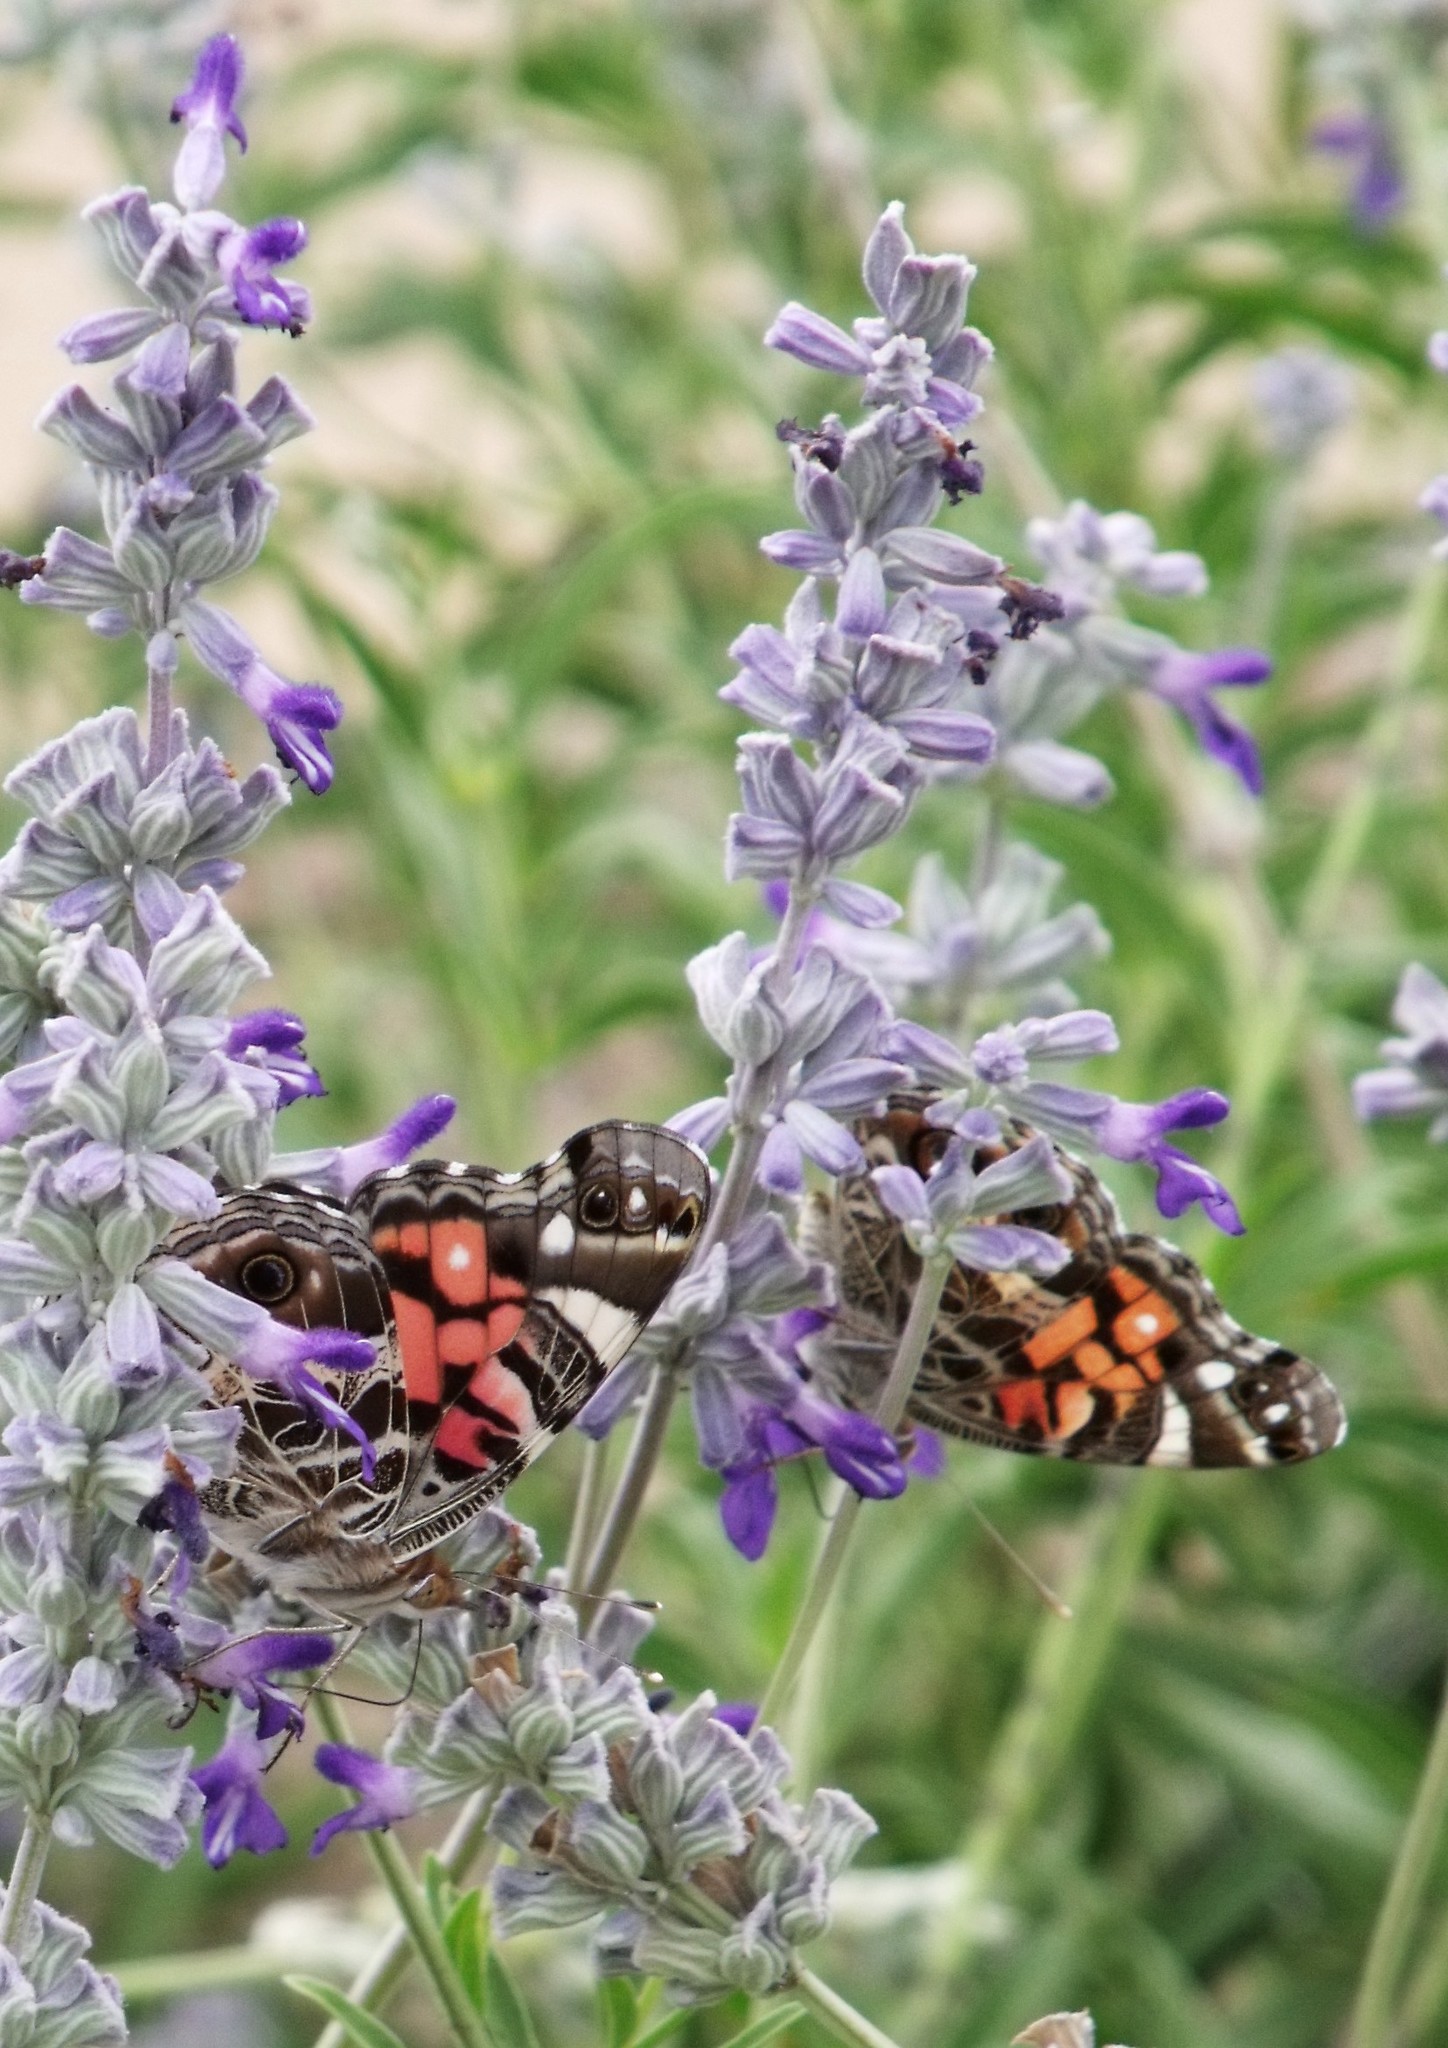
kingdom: Animalia
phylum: Arthropoda
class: Insecta
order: Lepidoptera
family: Nymphalidae
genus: Vanessa
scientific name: Vanessa virginiensis
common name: American lady
